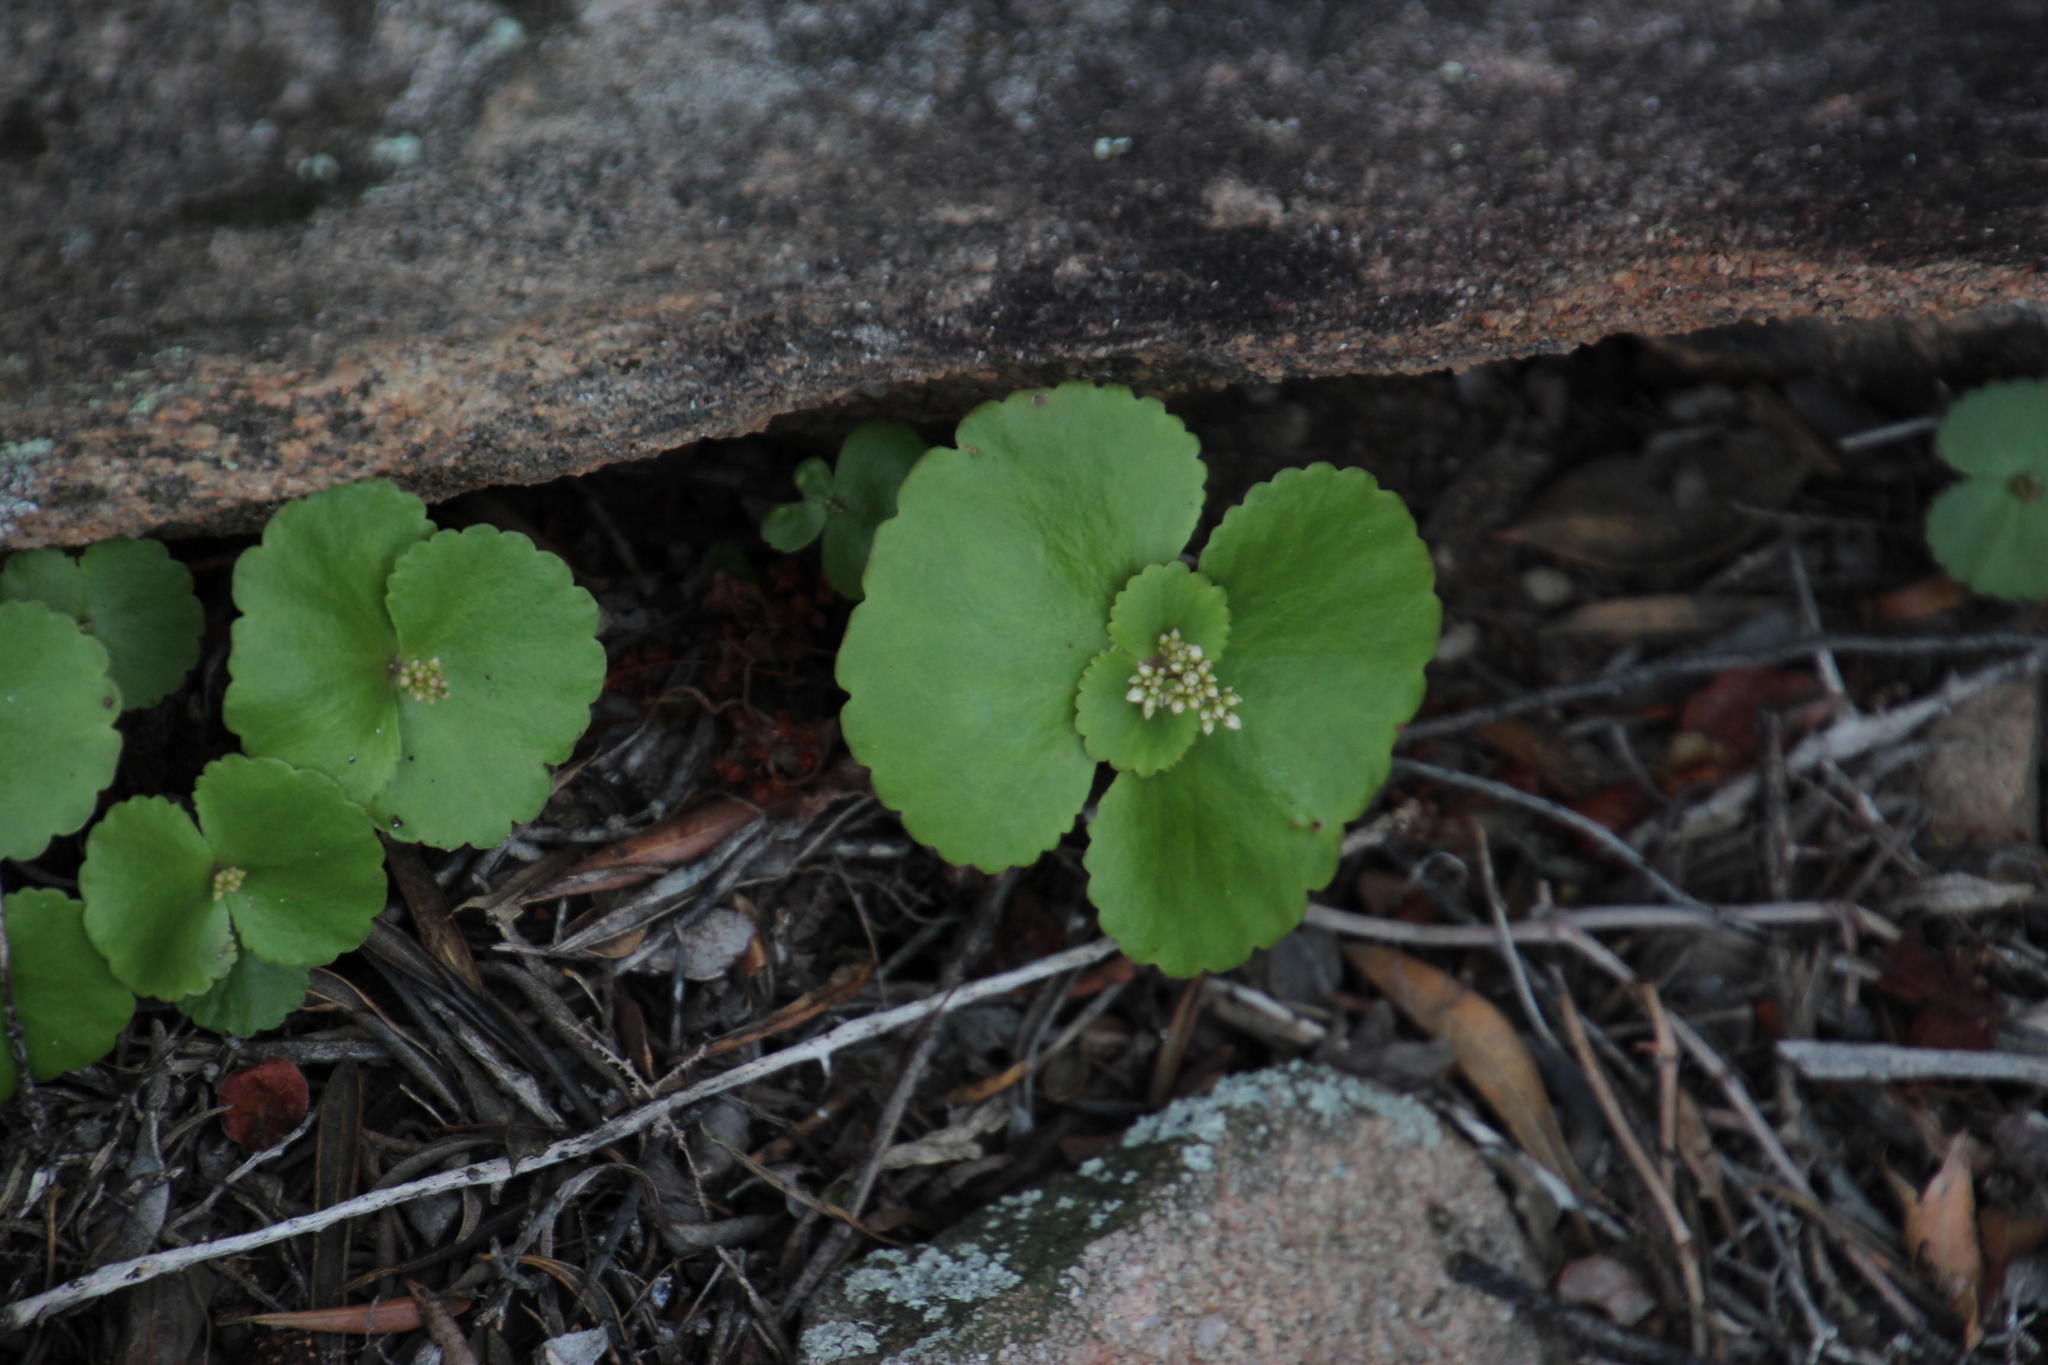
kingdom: Plantae
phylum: Tracheophyta
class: Magnoliopsida
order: Saxifragales
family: Crassulaceae
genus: Crassula
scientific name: Crassula umbella
